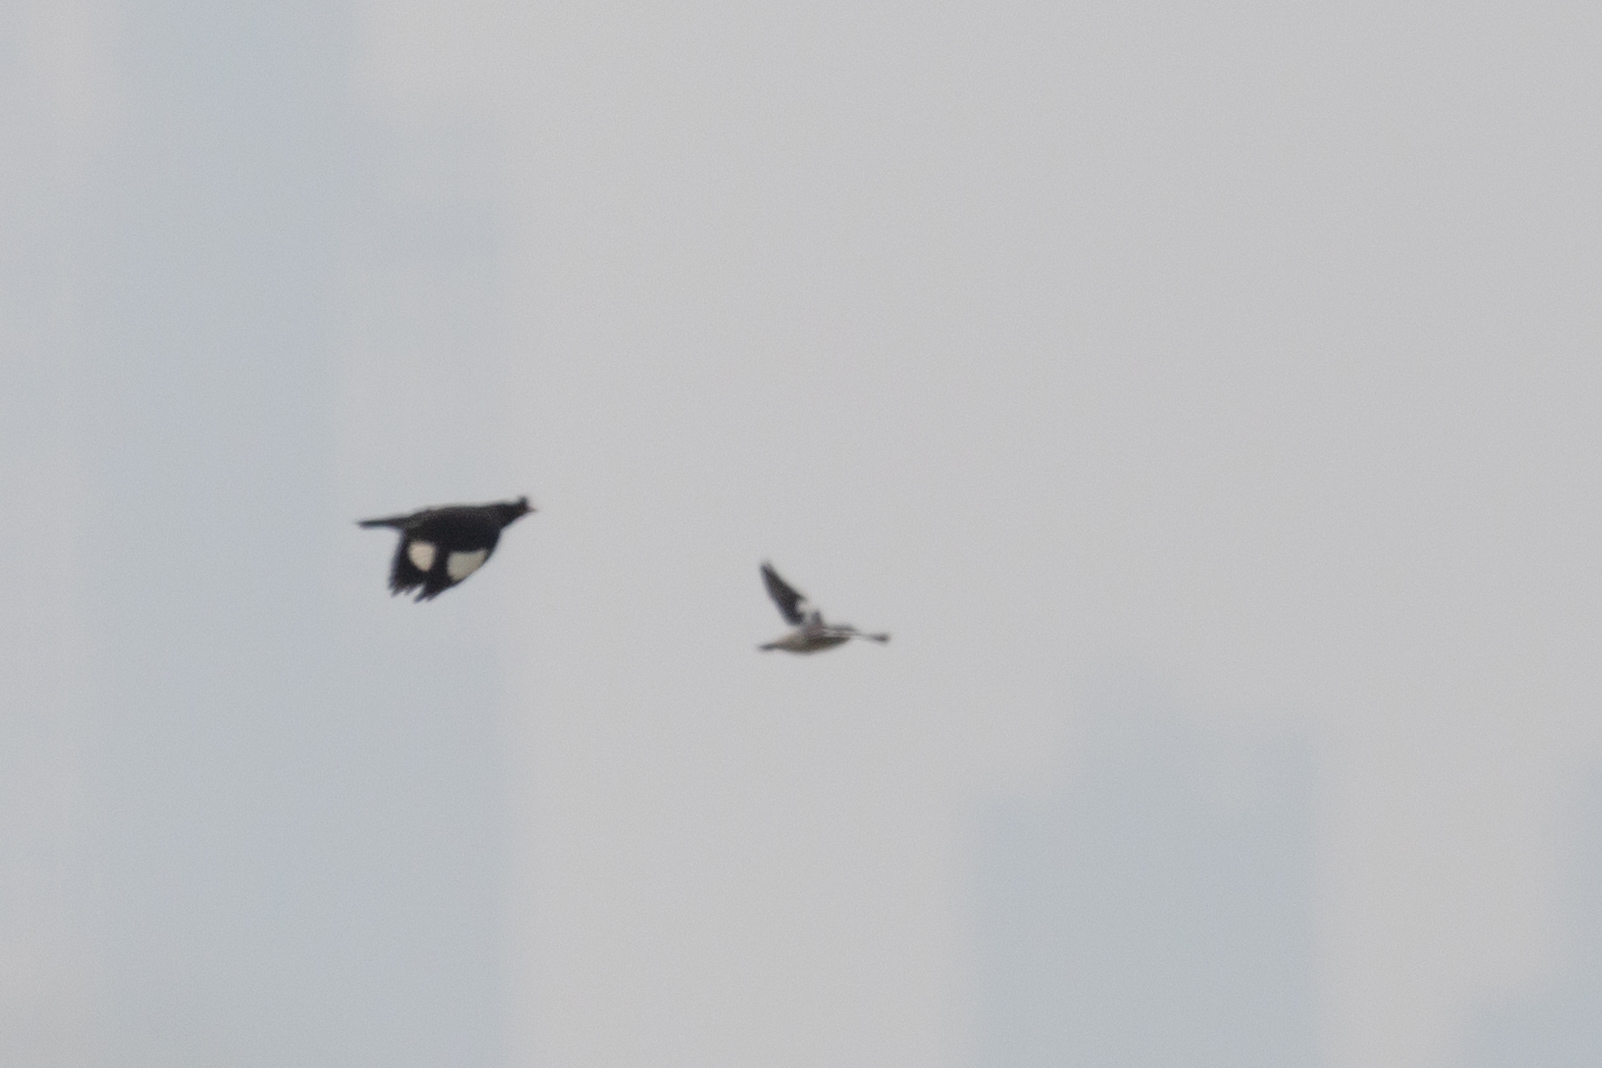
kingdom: Animalia
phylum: Chordata
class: Aves
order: Passeriformes
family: Sturnidae
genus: Sturnia
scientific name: Sturnia sinensis
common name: White-shouldered starling
